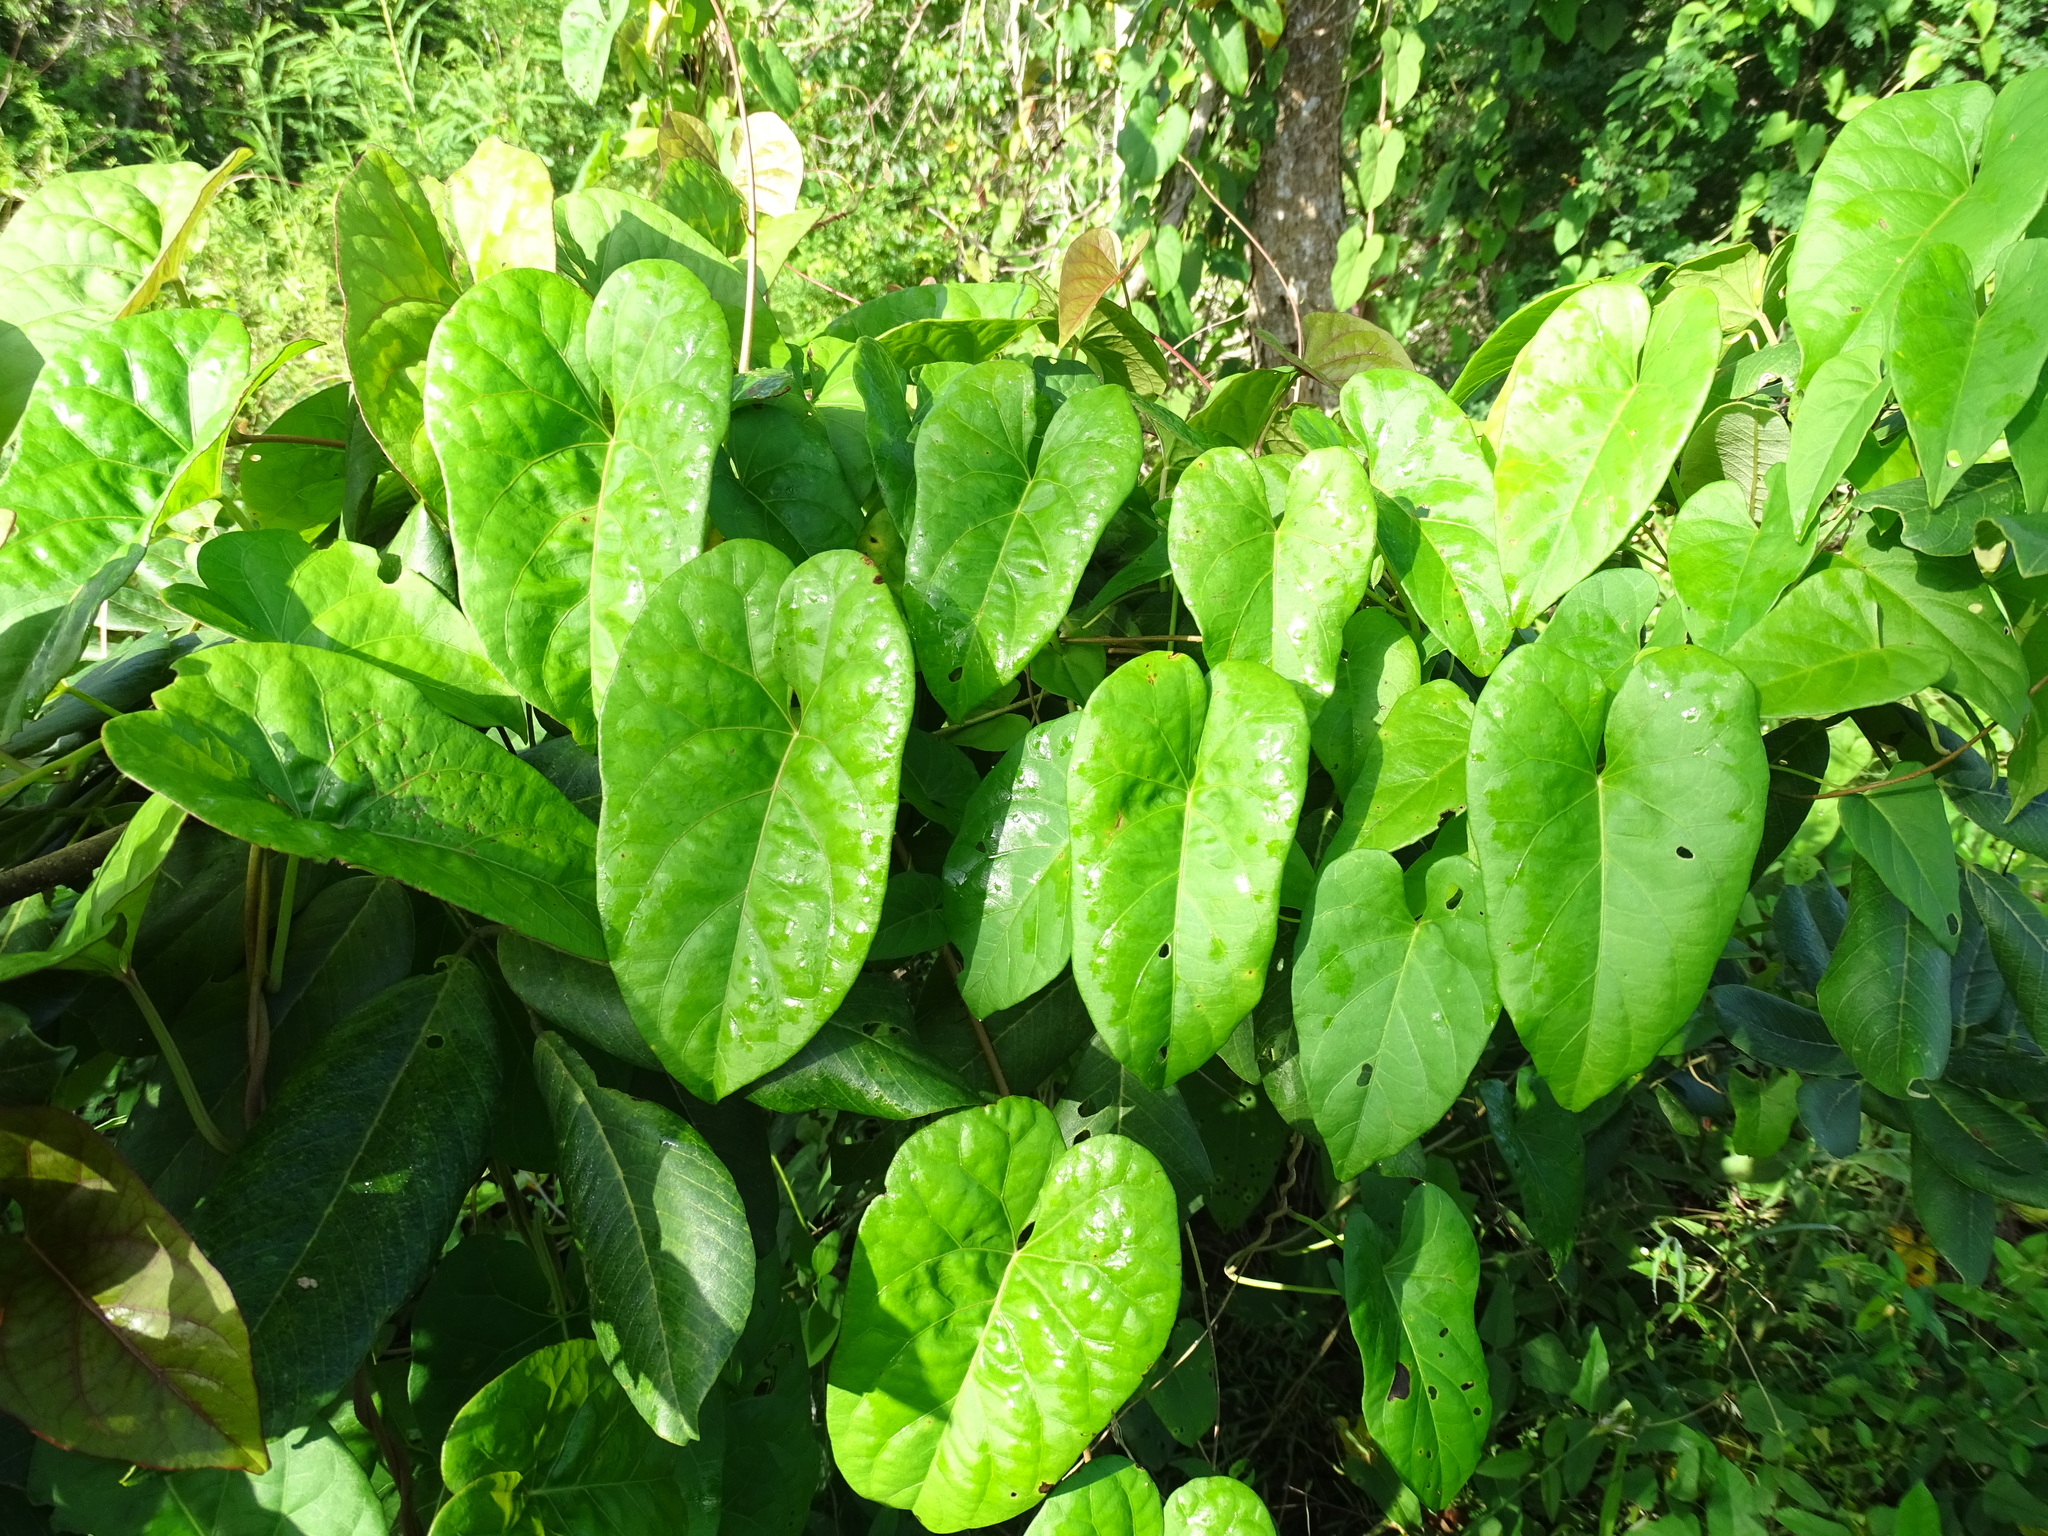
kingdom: Plantae
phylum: Tracheophyta
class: Magnoliopsida
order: Solanales
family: Convolvulaceae
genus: Ipomoea
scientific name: Ipomoea anisomeres
